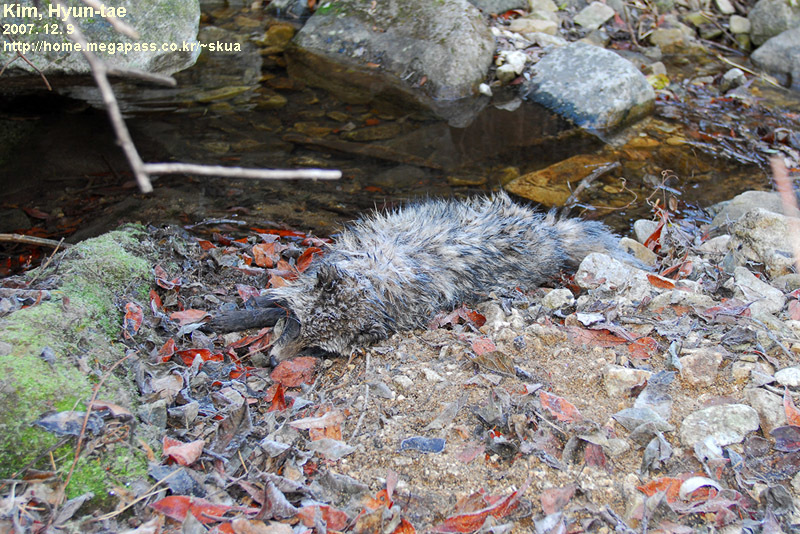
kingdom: Animalia
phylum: Chordata
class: Mammalia
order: Carnivora
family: Canidae
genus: Nyctereutes
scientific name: Nyctereutes procyonoides
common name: Raccoon dog
